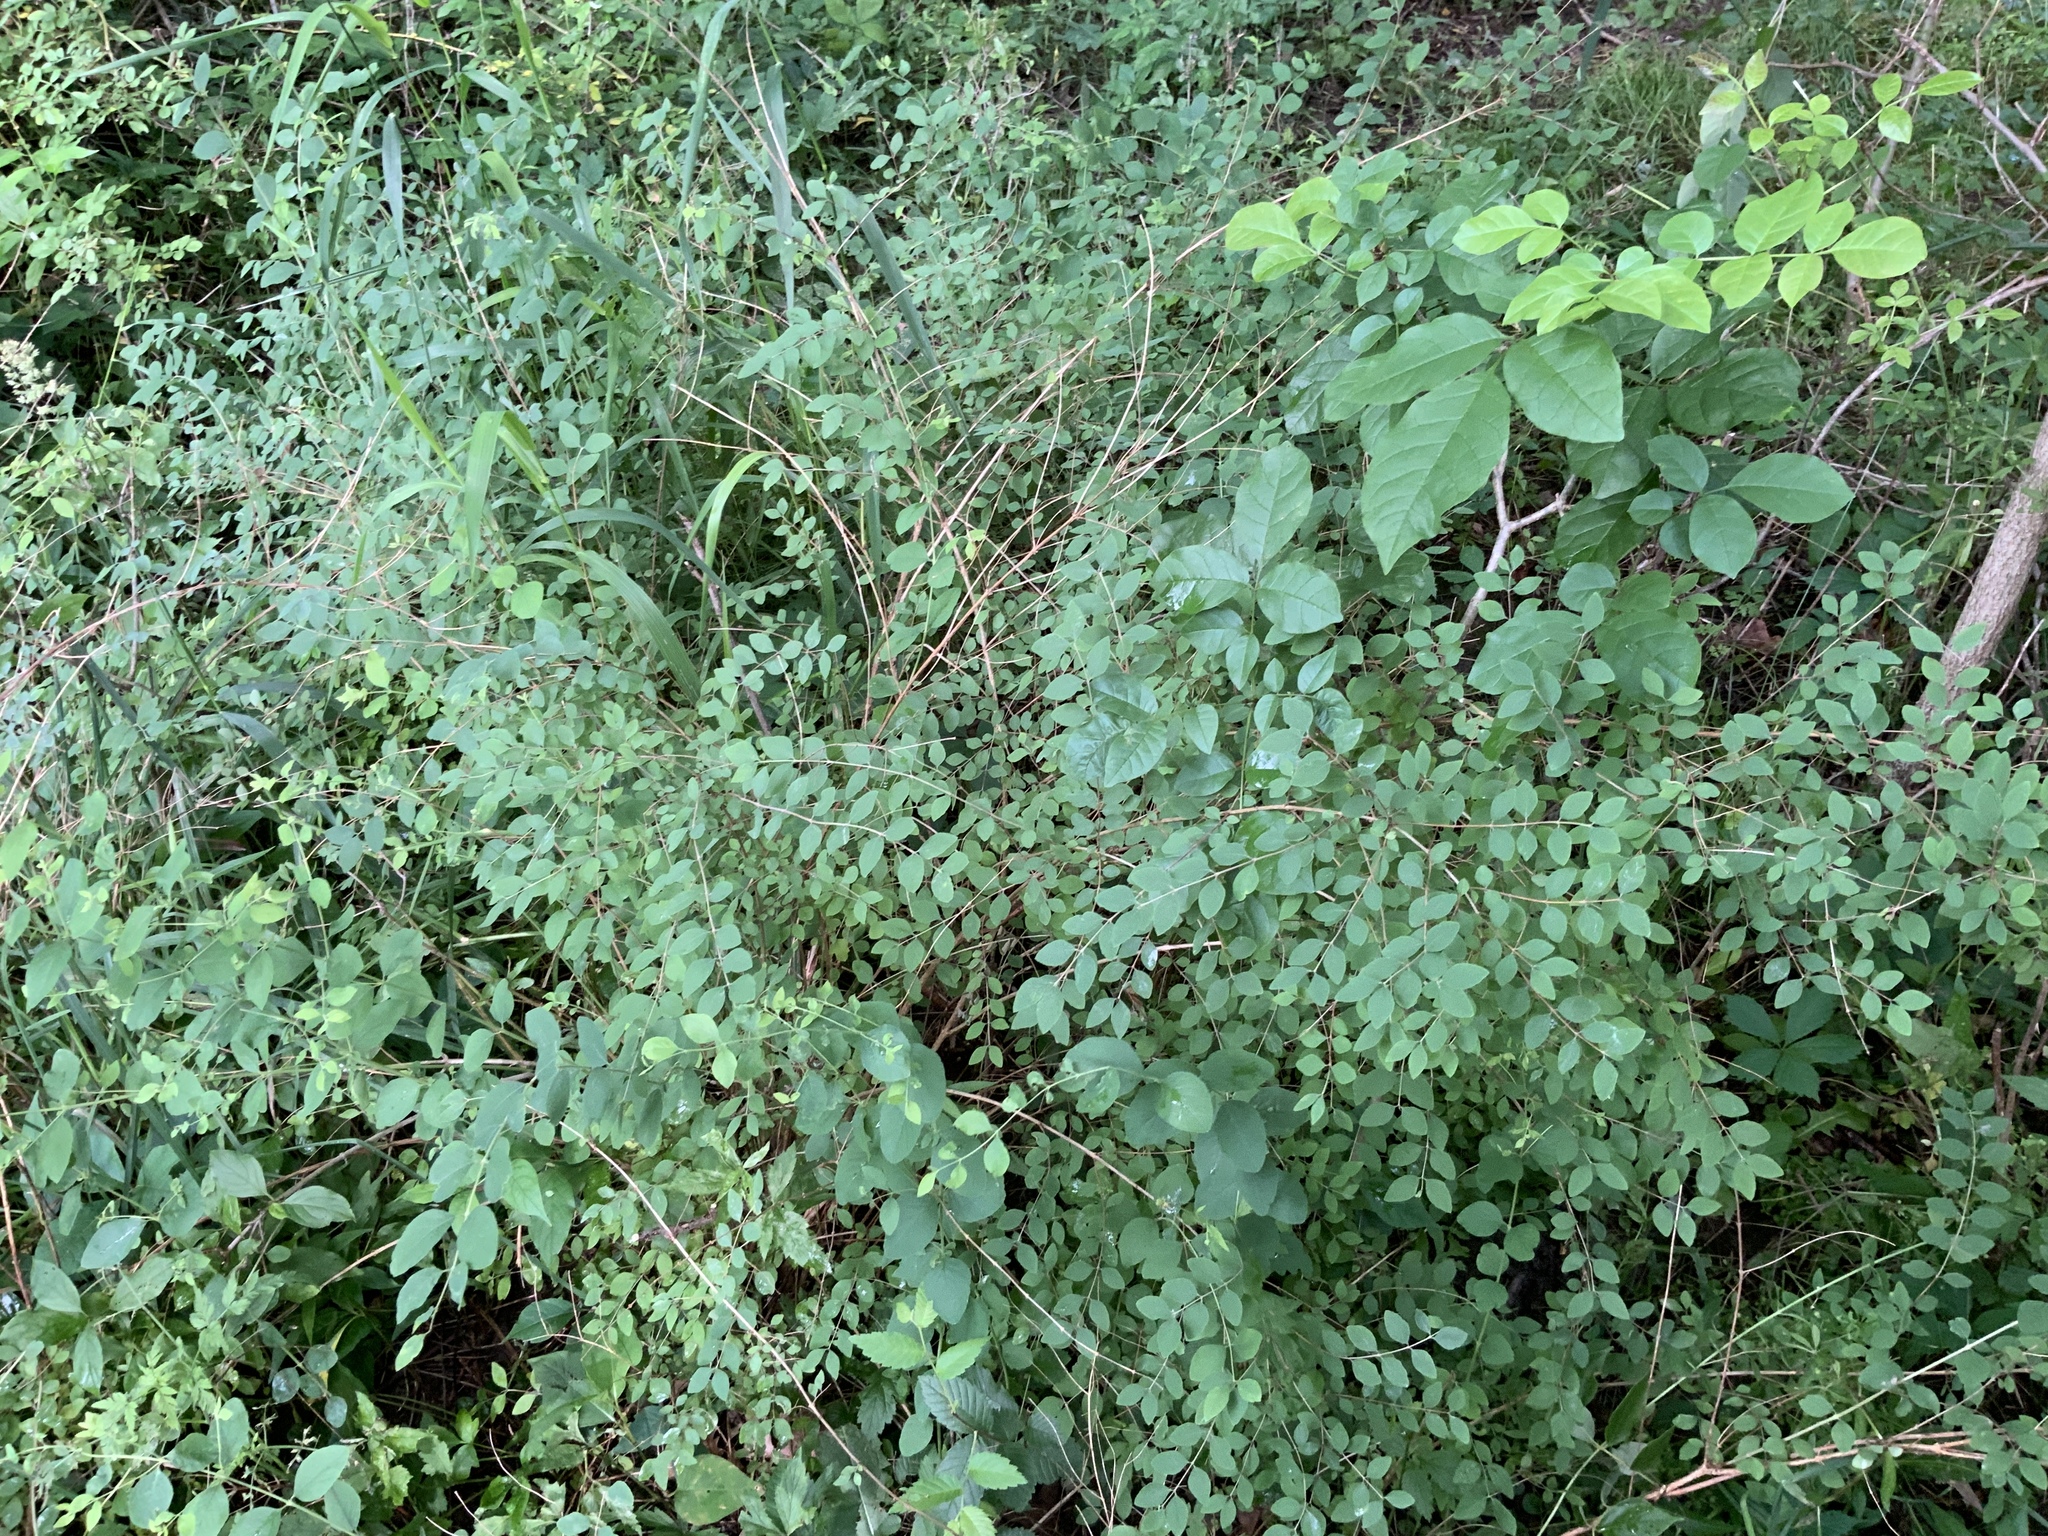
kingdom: Plantae
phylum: Tracheophyta
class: Magnoliopsida
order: Dipsacales
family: Caprifoliaceae
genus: Symphoricarpos
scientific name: Symphoricarpos orbiculatus
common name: Coralberry
